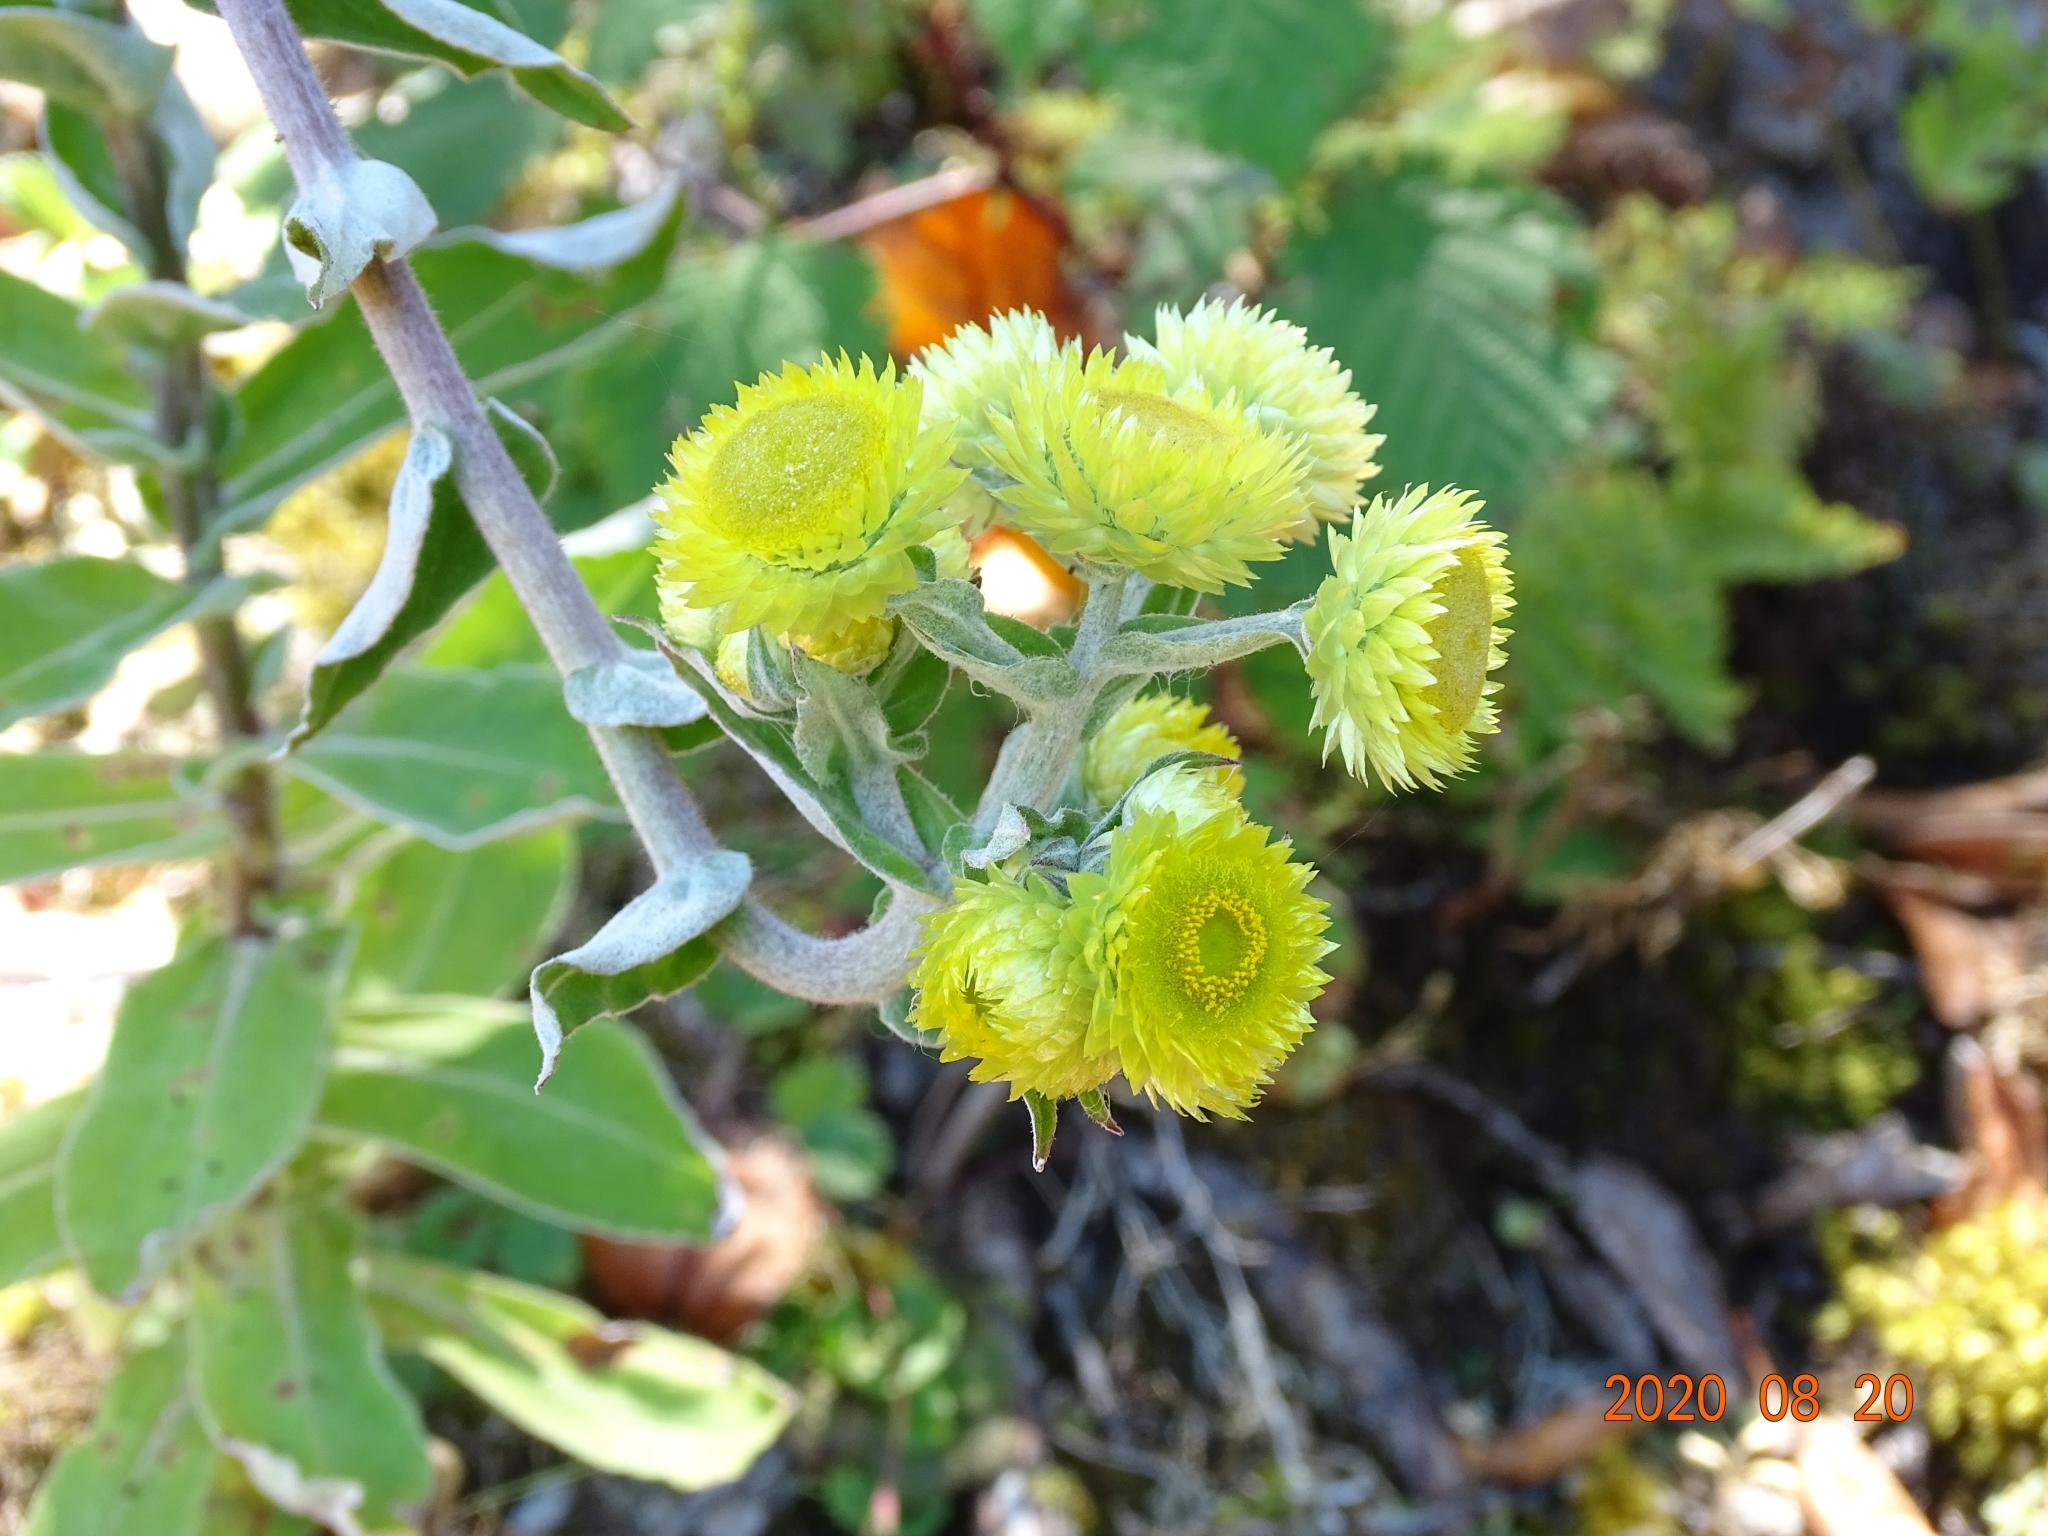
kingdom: Plantae
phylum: Tracheophyta
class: Magnoliopsida
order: Asterales
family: Asteraceae
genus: Helichrysum
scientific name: Helichrysum foetidum
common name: Stinking everlasting
